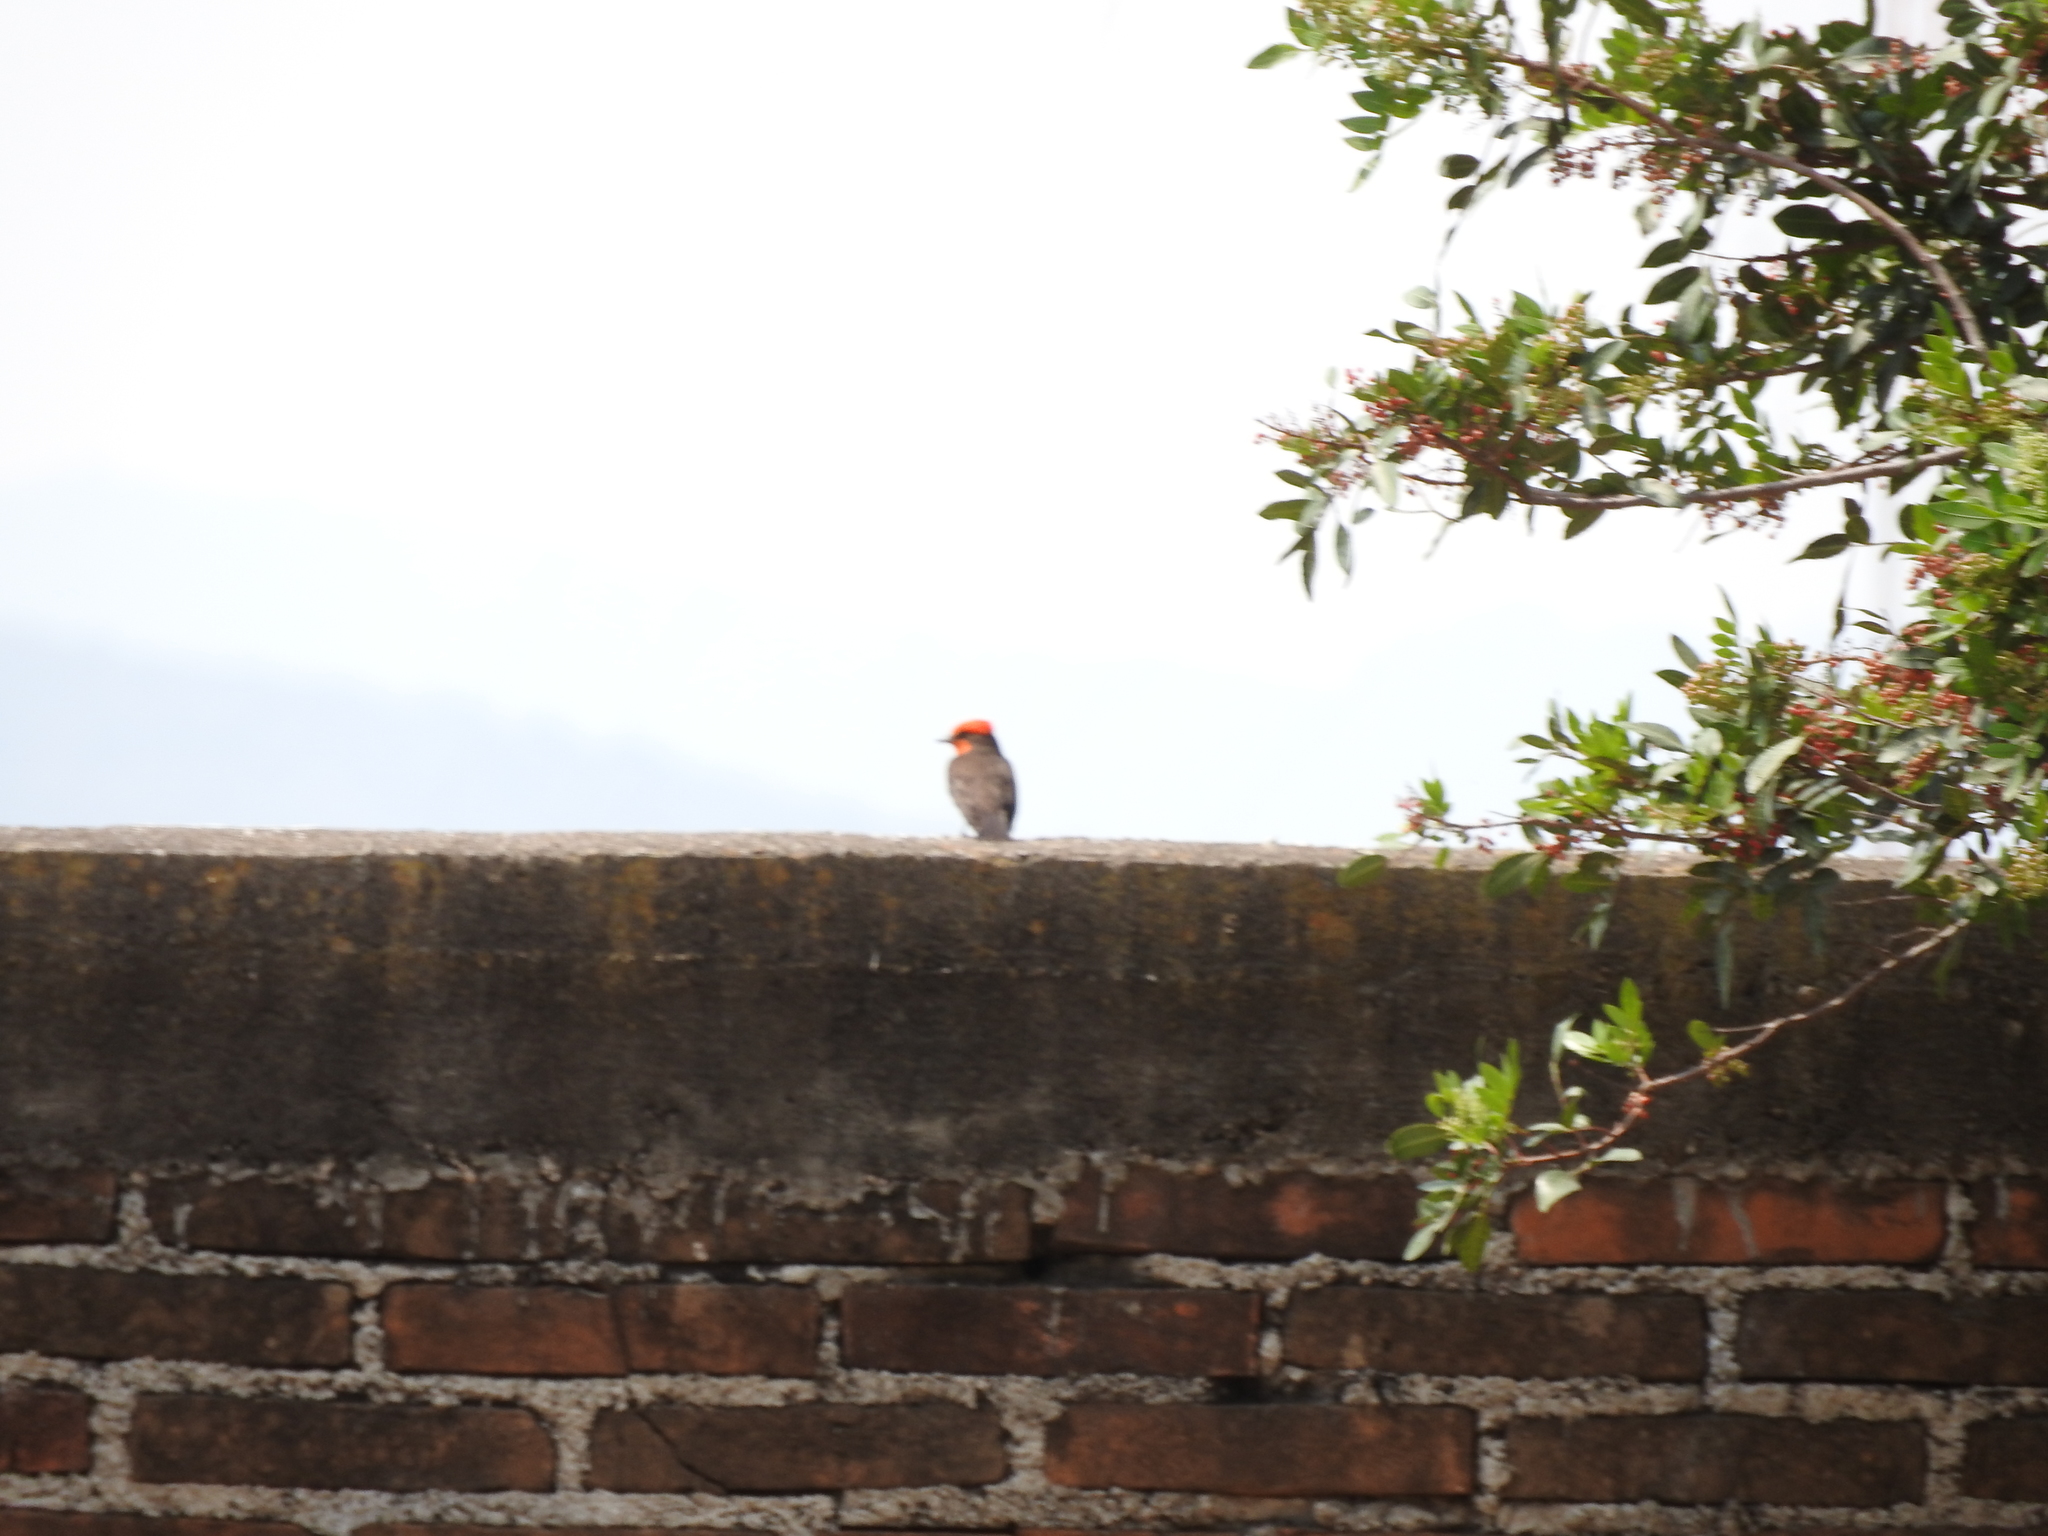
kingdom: Animalia
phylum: Chordata
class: Aves
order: Passeriformes
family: Tyrannidae
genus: Pyrocephalus
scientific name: Pyrocephalus rubinus
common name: Vermilion flycatcher
